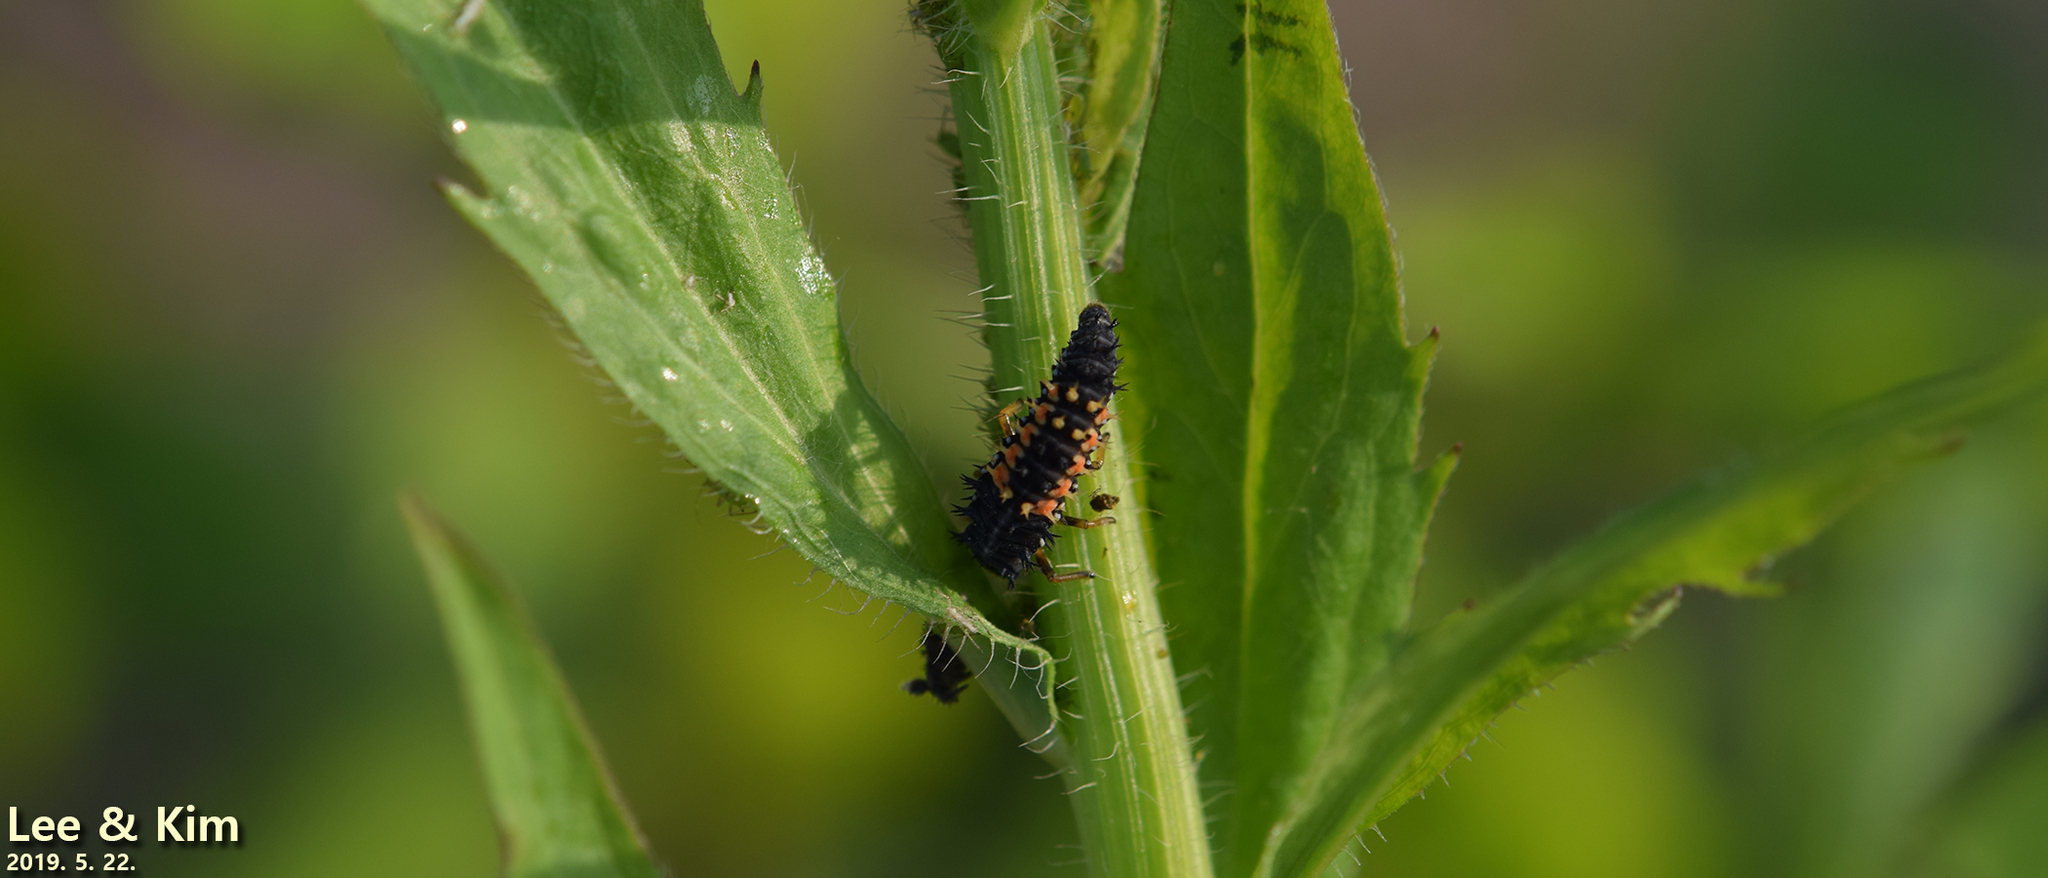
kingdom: Animalia
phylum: Arthropoda
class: Insecta
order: Coleoptera
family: Coccinellidae
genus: Harmonia
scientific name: Harmonia axyridis
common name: Harlequin ladybird
